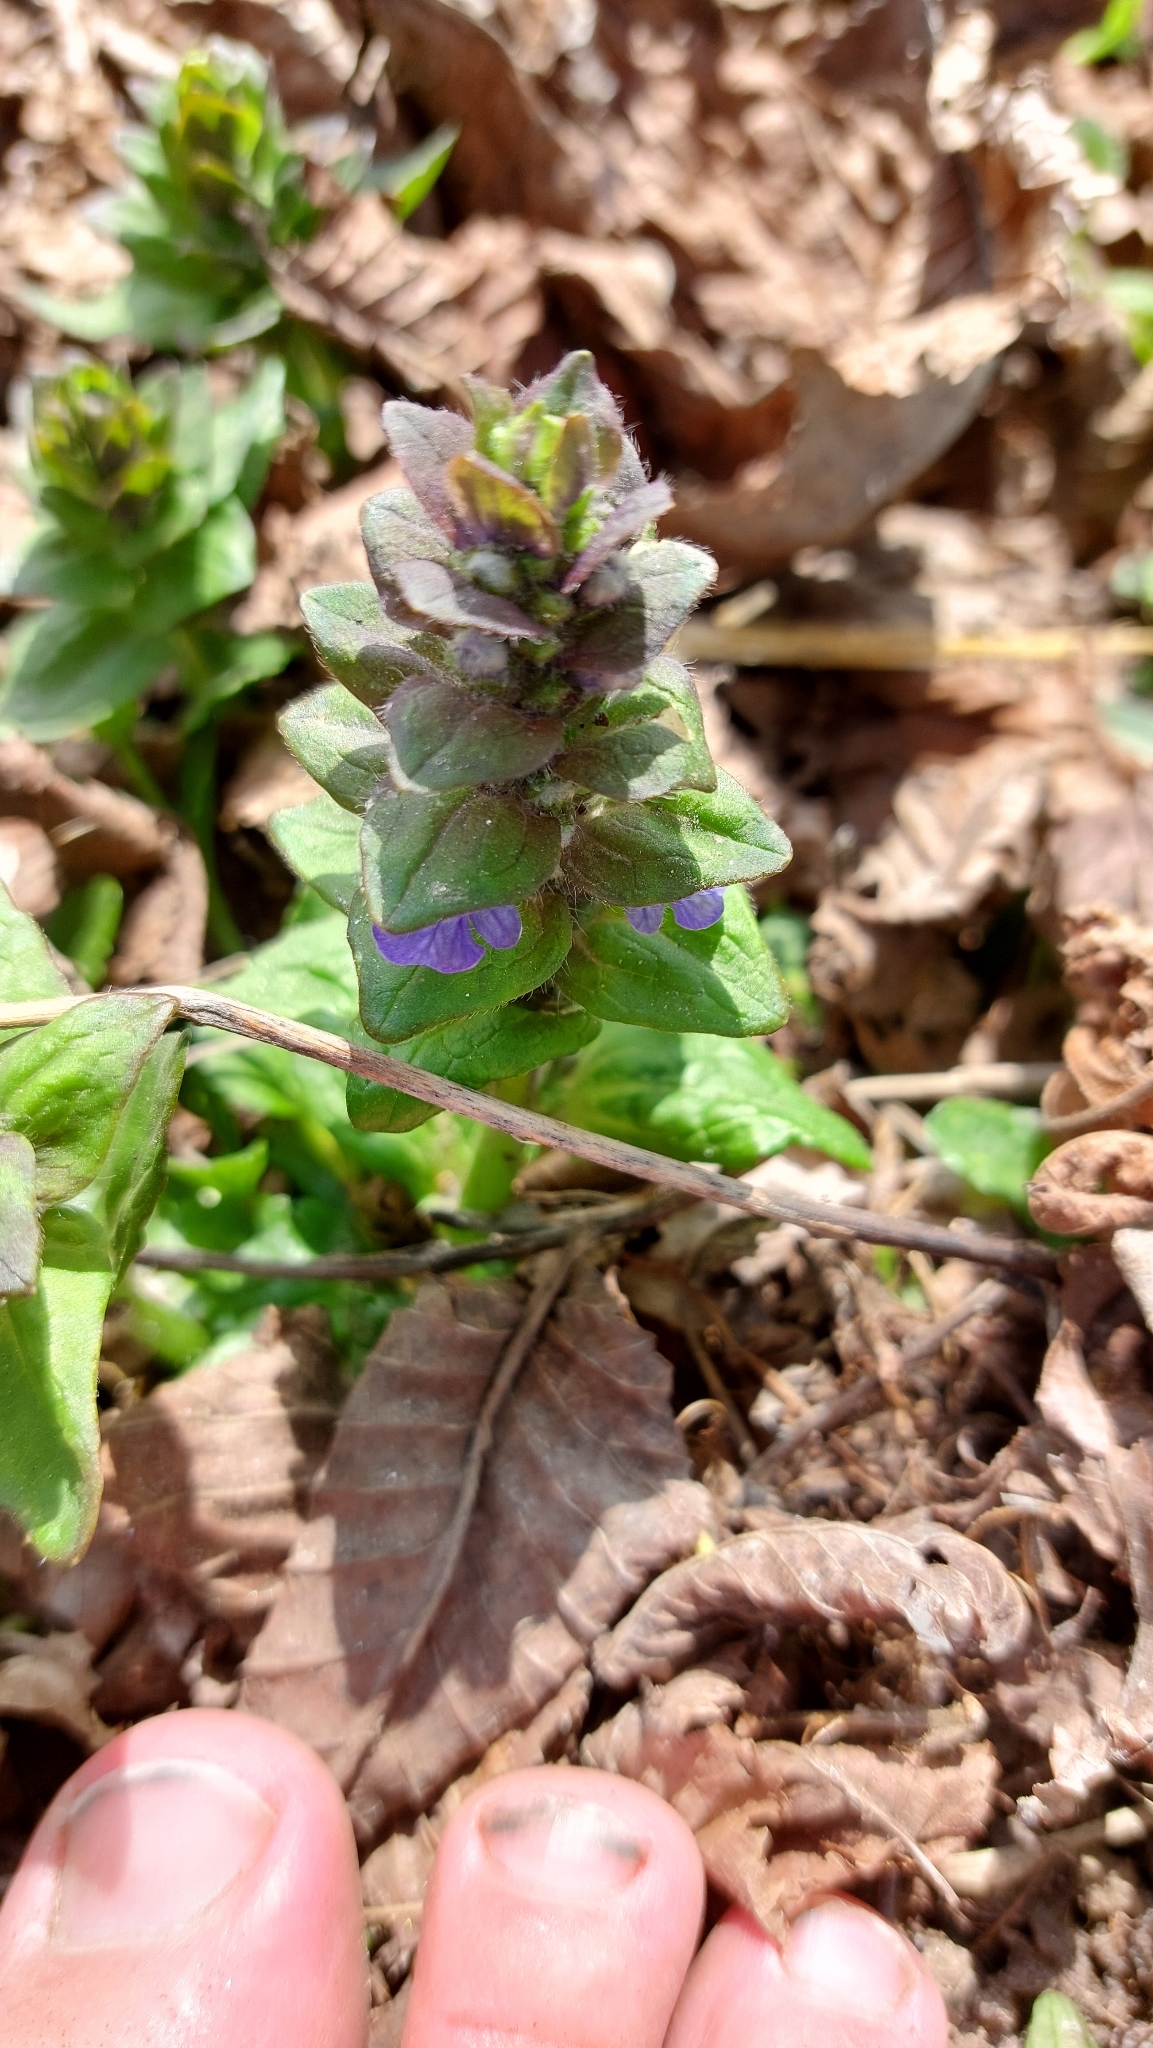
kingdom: Plantae
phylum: Tracheophyta
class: Magnoliopsida
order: Lamiales
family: Lamiaceae
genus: Ajuga
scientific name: Ajuga reptans
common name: Bugle
